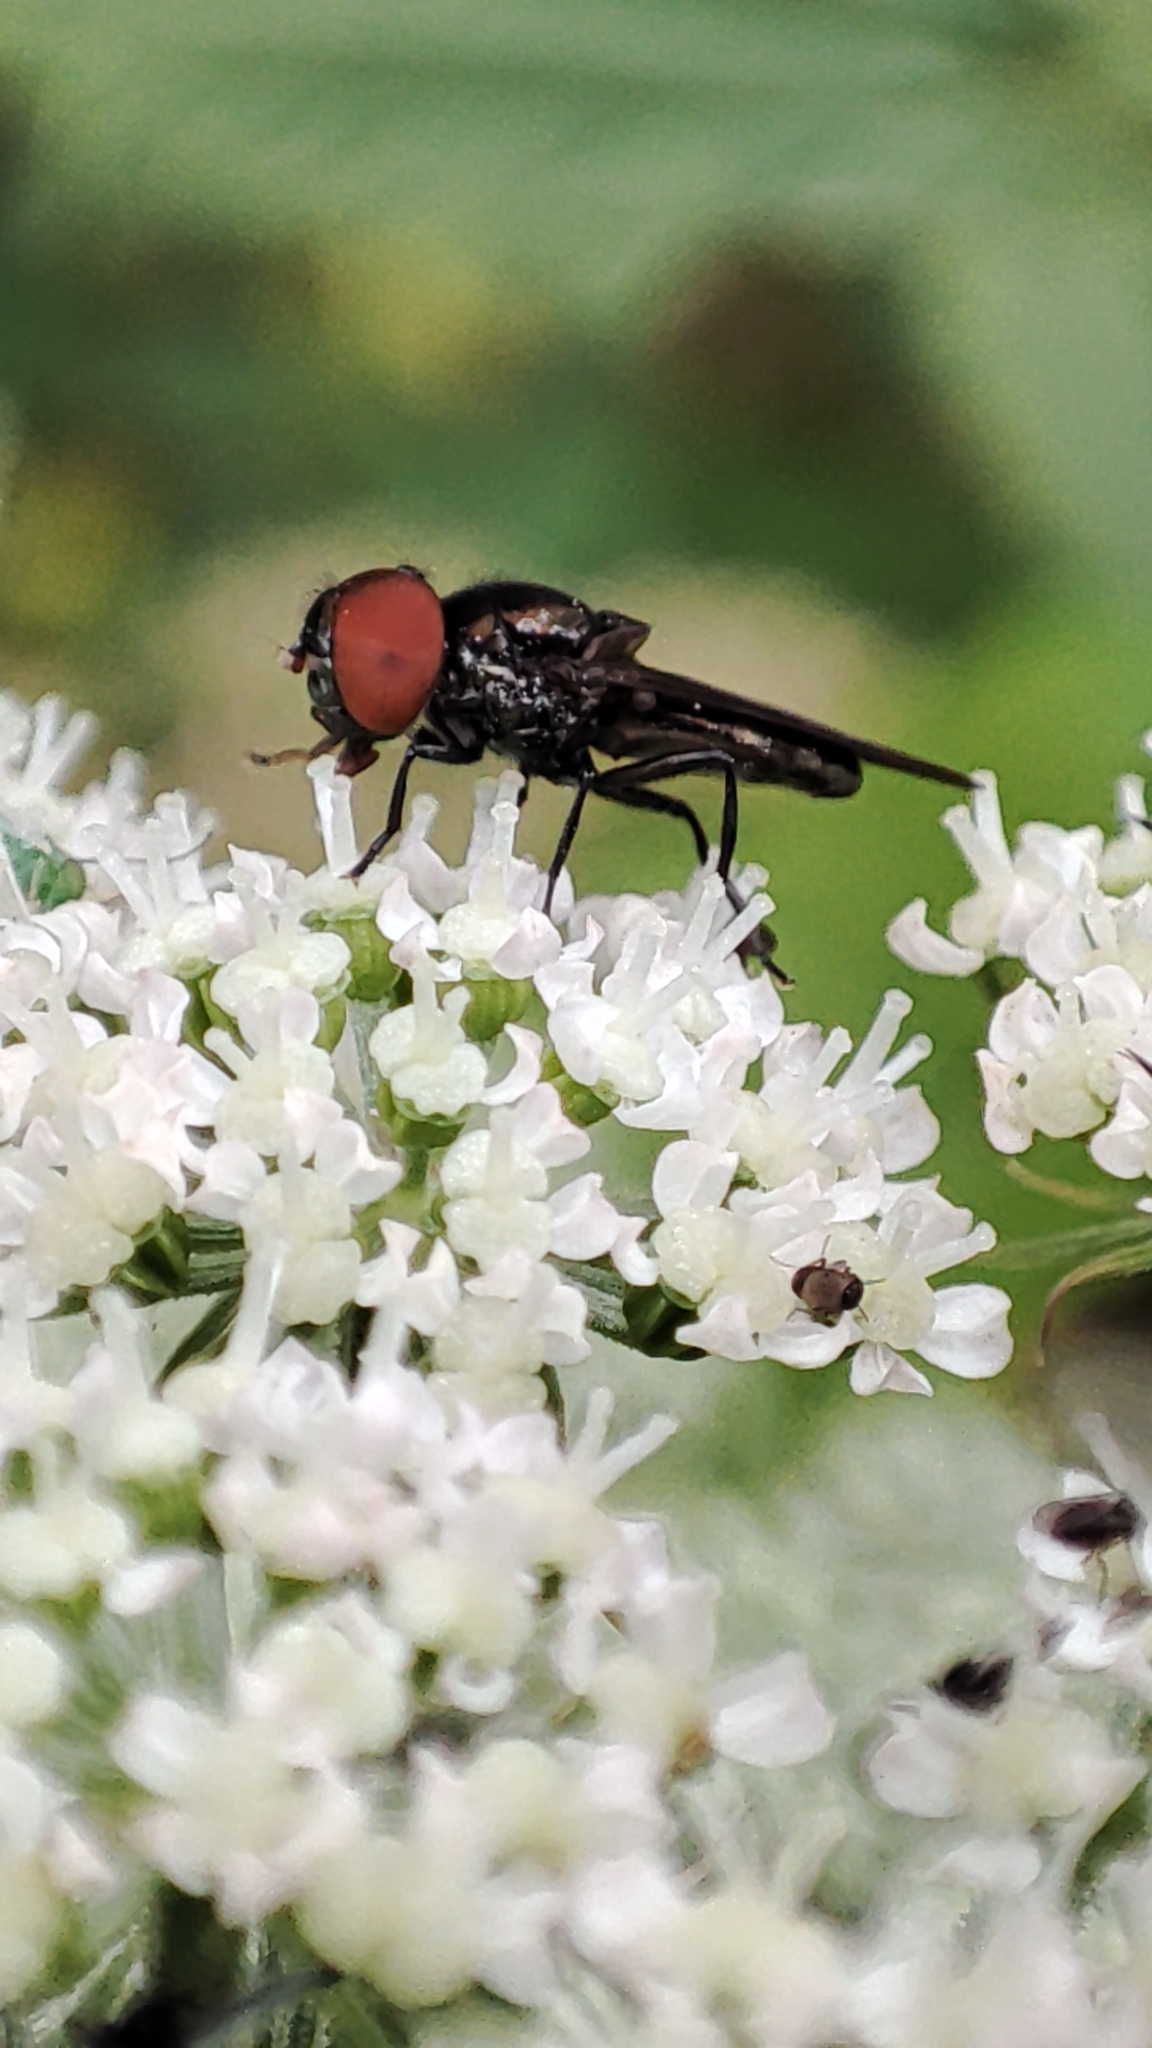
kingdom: Animalia
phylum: Arthropoda
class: Insecta
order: Diptera
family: Syrphidae
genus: Chrysogaster
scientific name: Chrysogaster solstitialis
